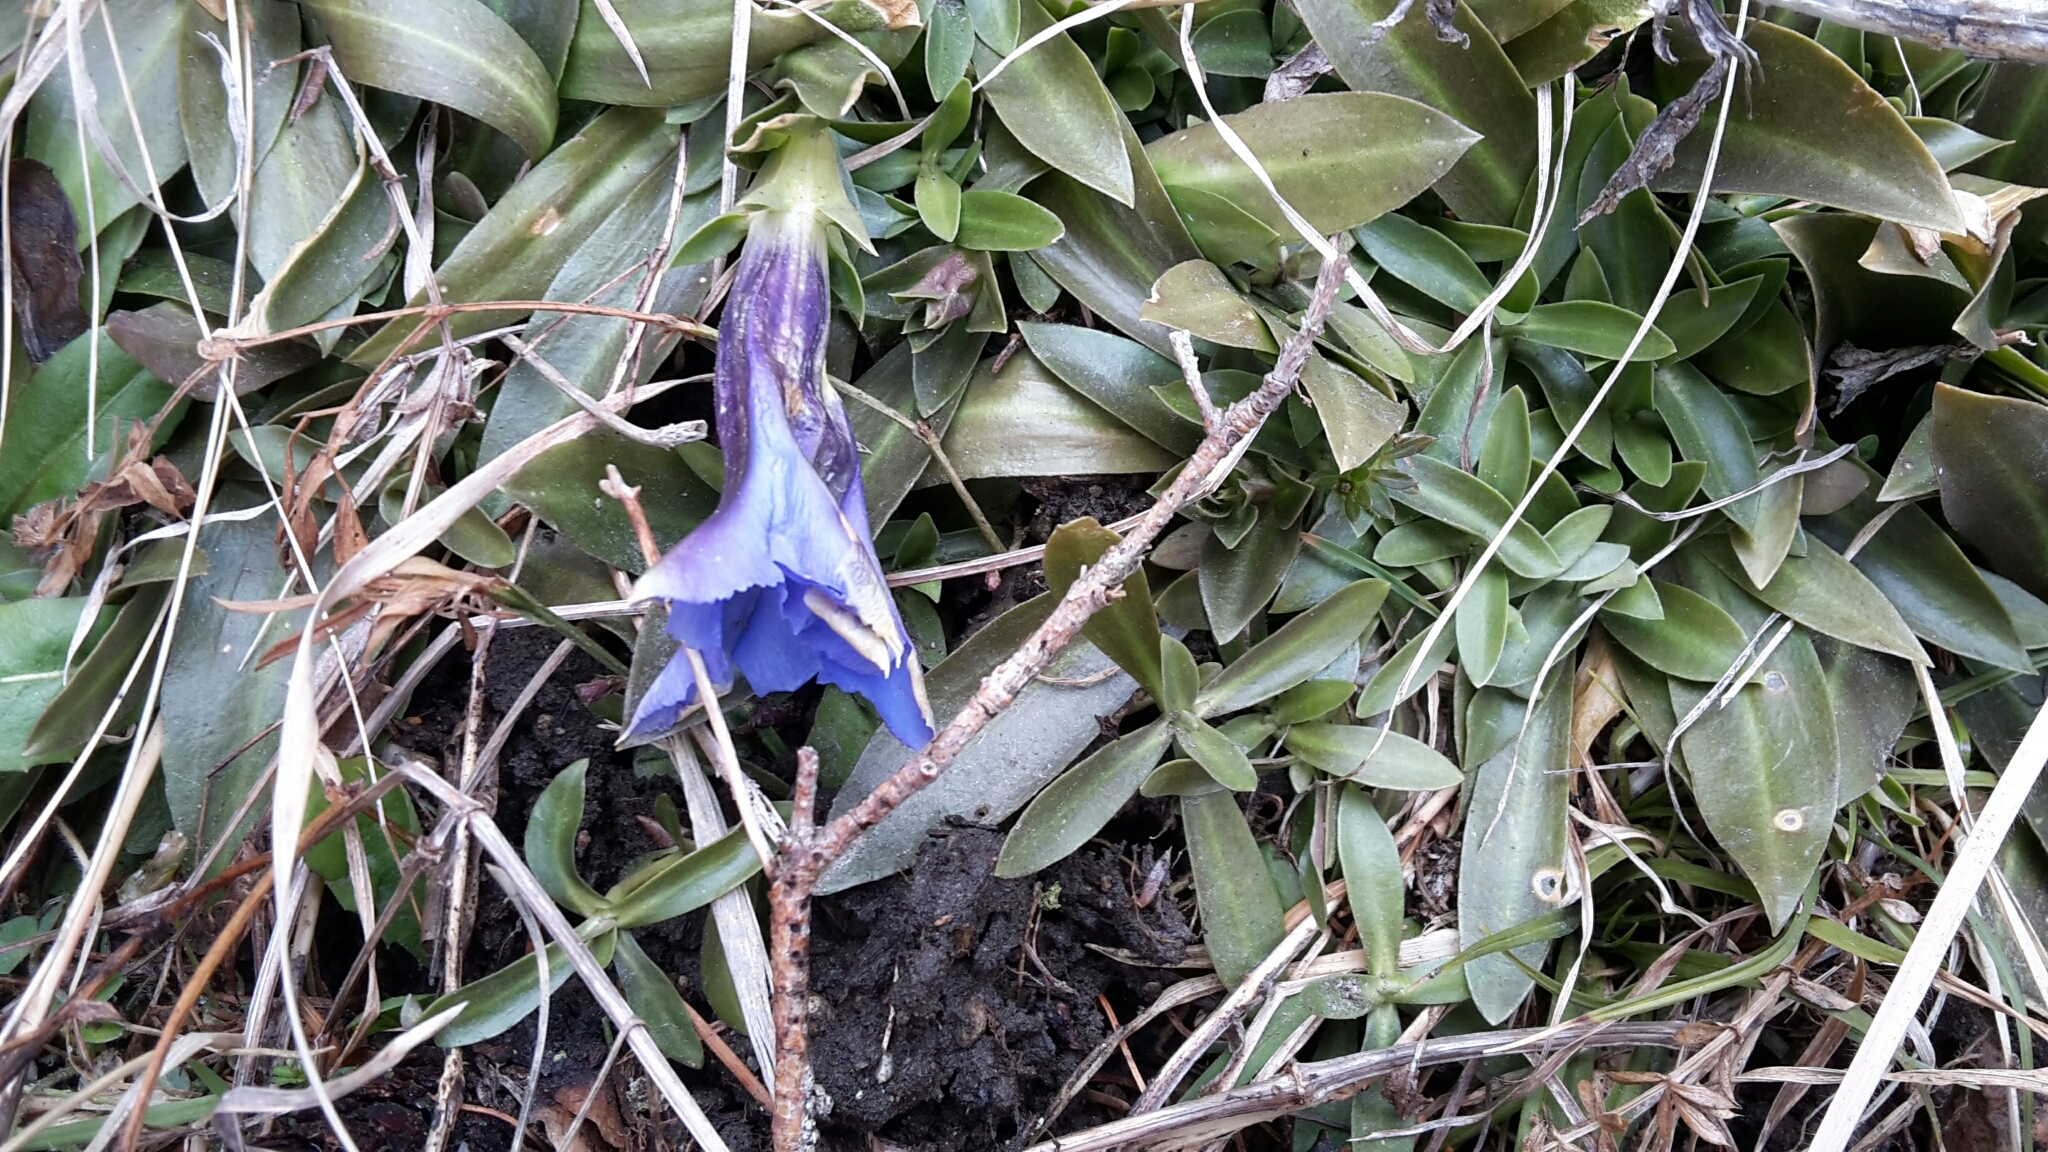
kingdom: Plantae
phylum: Tracheophyta
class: Magnoliopsida
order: Gentianales
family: Gentianaceae
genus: Gentiana
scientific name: Gentiana acaulis
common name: Trumpet gentian
